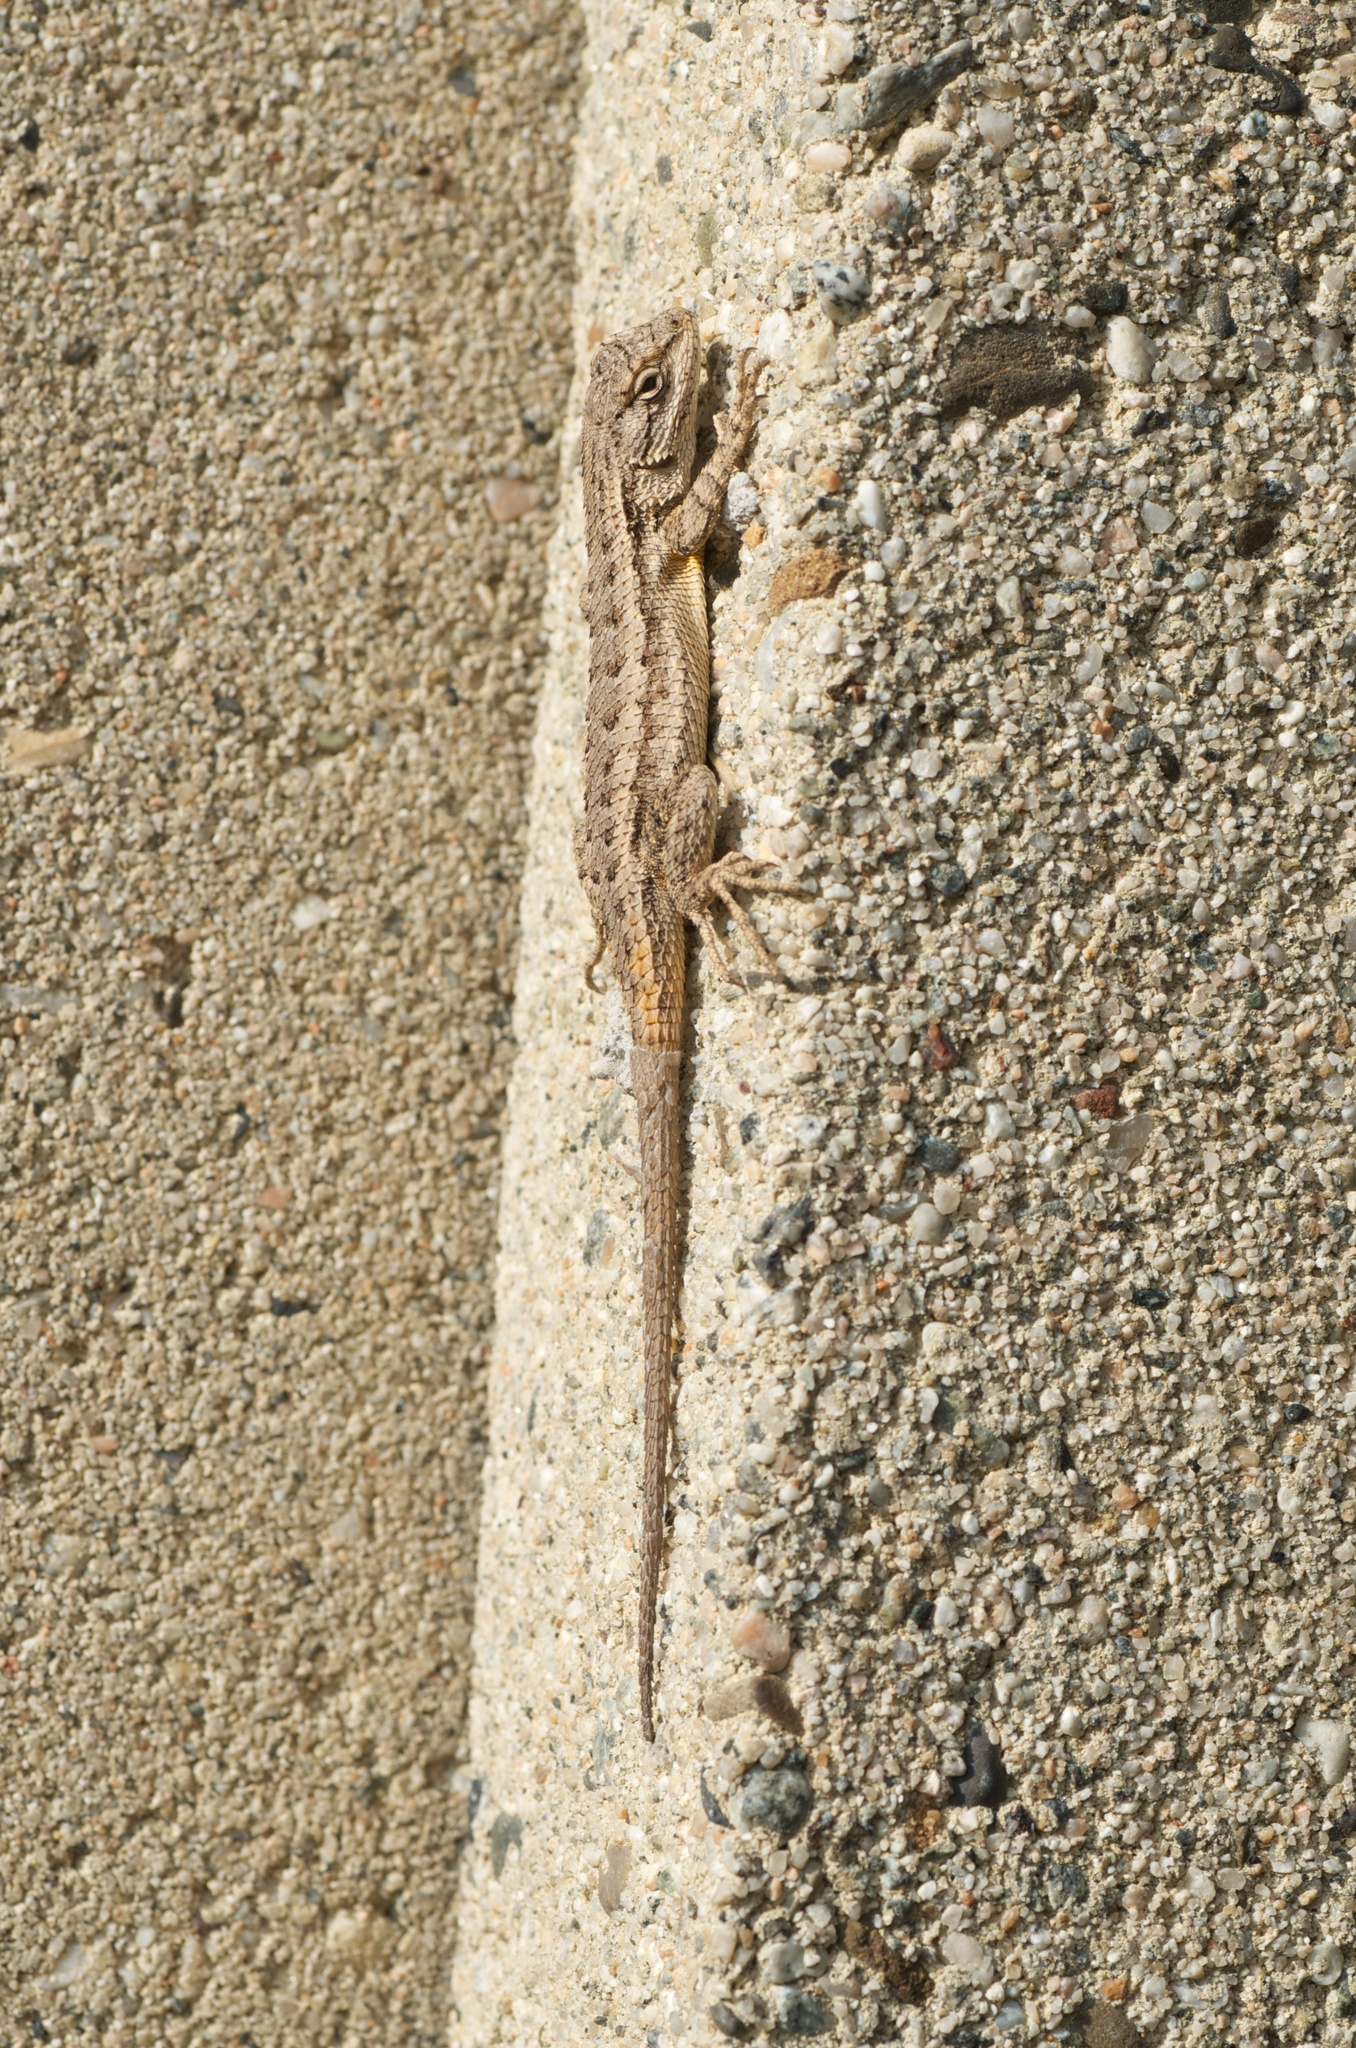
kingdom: Animalia
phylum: Chordata
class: Squamata
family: Phrynosomatidae
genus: Sceloporus
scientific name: Sceloporus occidentalis
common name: Western fence lizard
